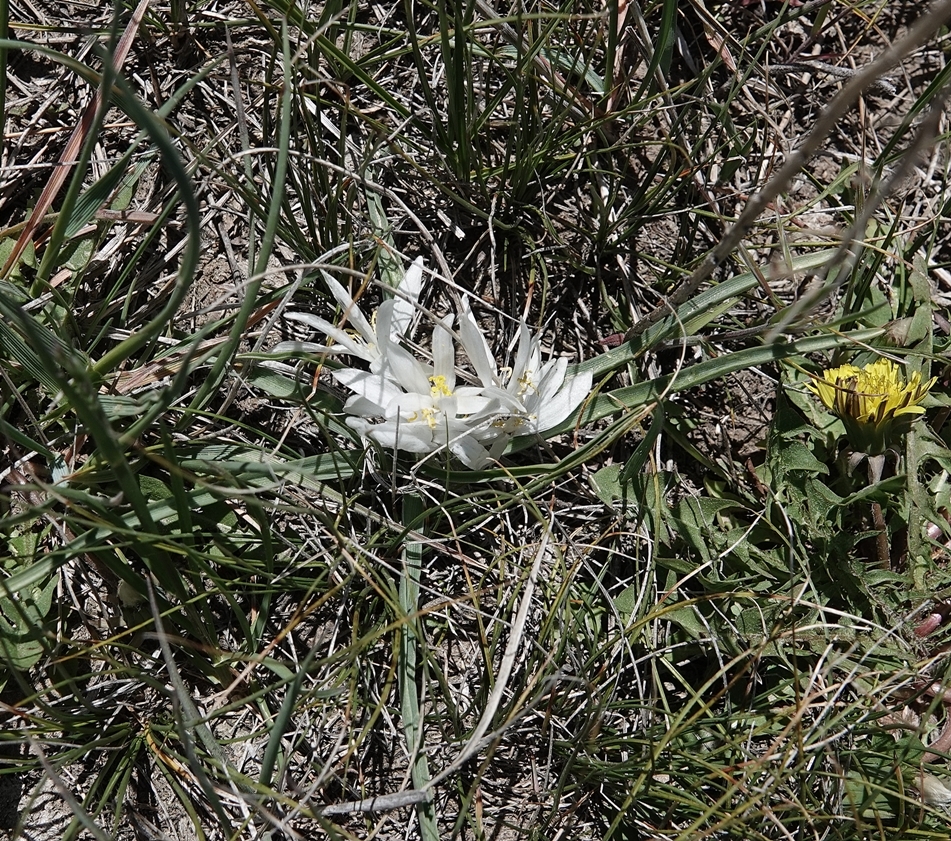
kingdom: Plantae
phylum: Tracheophyta
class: Liliopsida
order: Asparagales
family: Asparagaceae
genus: Leucocrinum
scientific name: Leucocrinum montanum
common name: Mountain-lily
